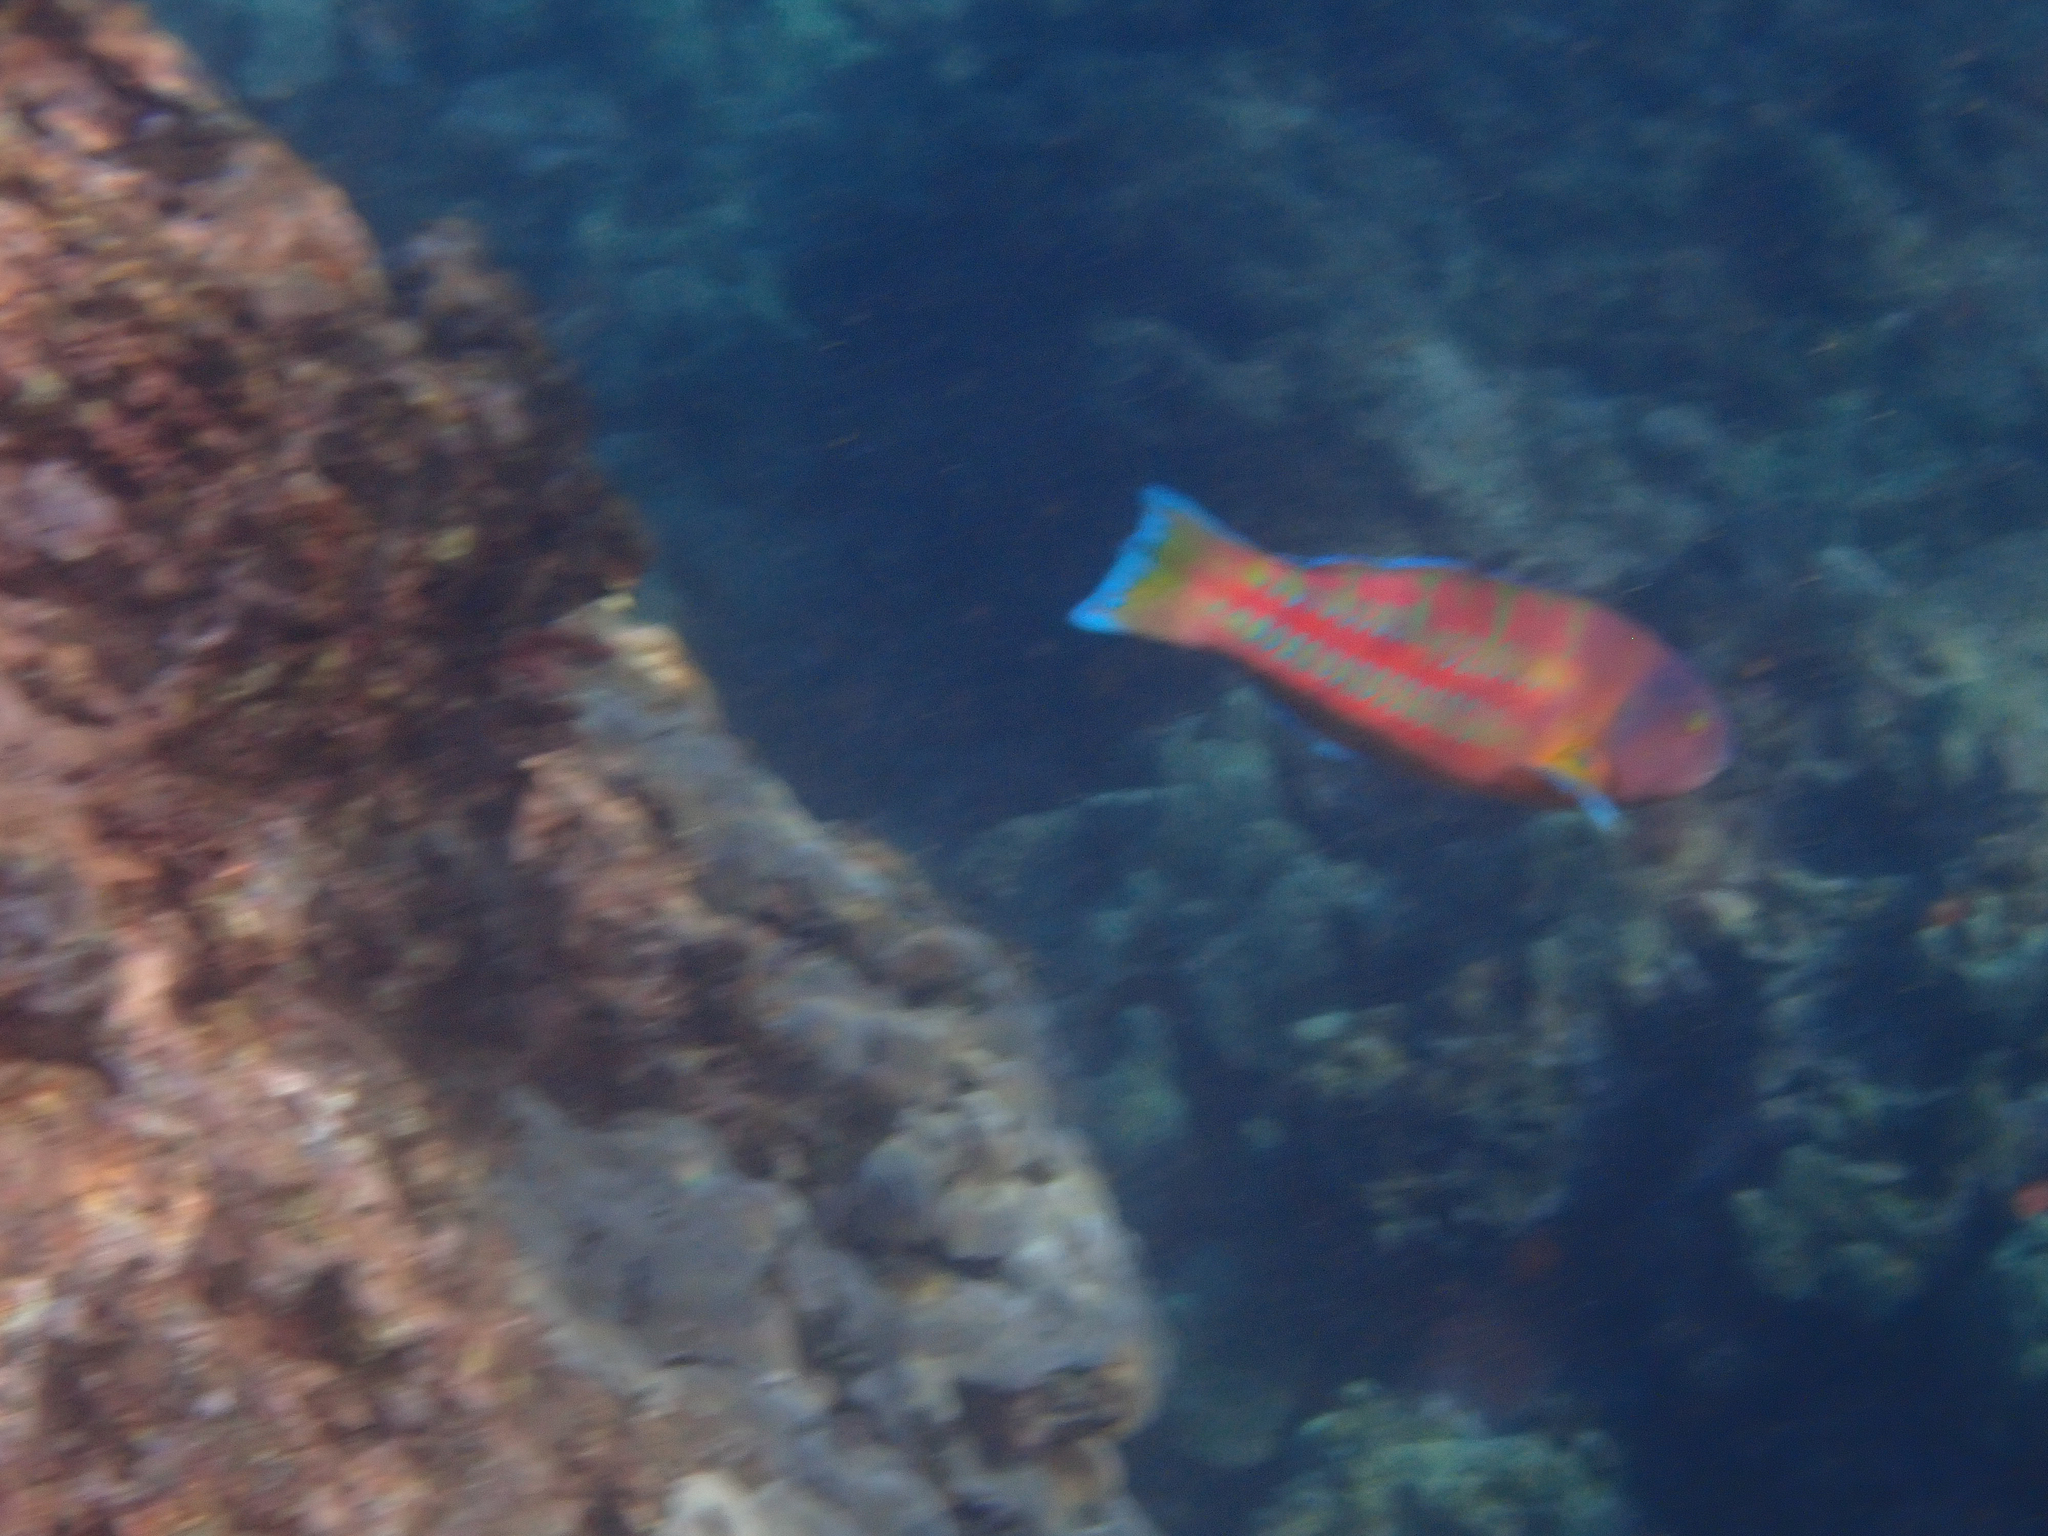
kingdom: Animalia
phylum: Chordata
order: Perciformes
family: Labridae
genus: Thalassoma
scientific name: Thalassoma trilobatum
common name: Christmas wrasse
